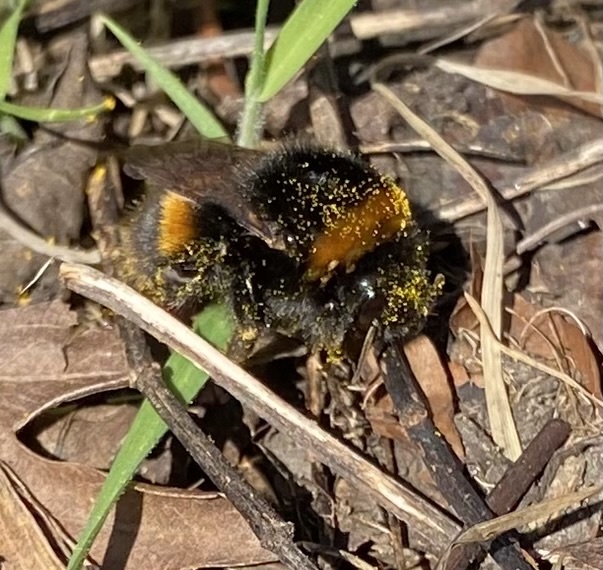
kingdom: Animalia
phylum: Arthropoda
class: Insecta
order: Hymenoptera
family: Apidae
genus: Bombus
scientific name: Bombus terrestris
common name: Buff-tailed bumblebee
